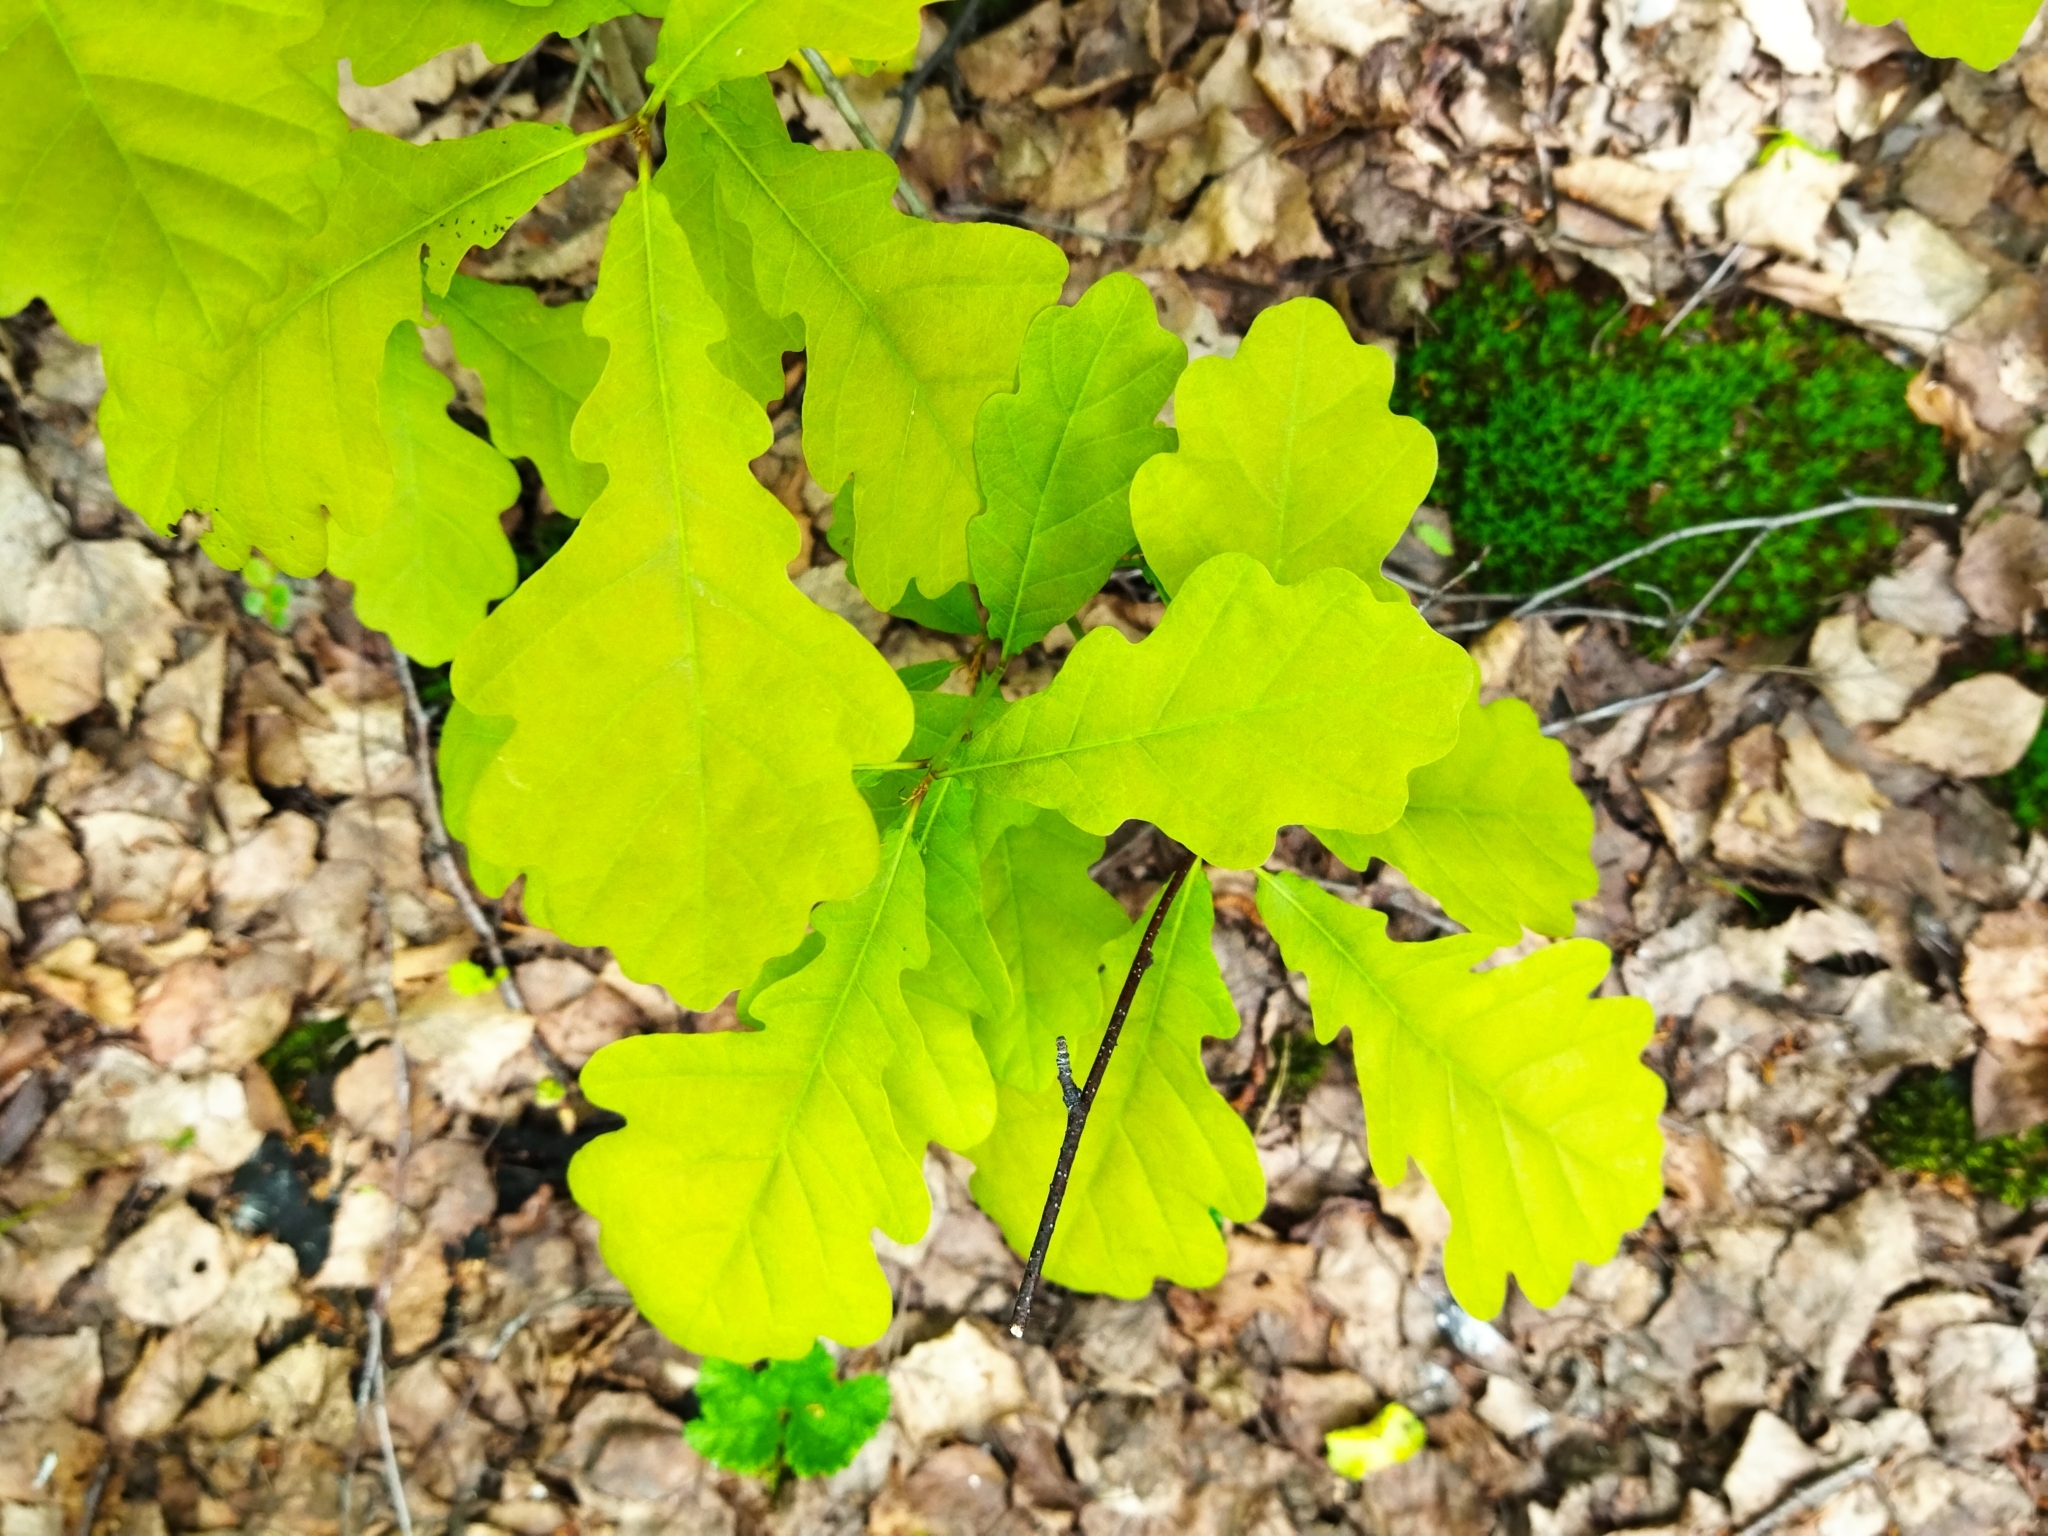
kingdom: Plantae
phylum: Tracheophyta
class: Magnoliopsida
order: Fagales
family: Fagaceae
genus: Quercus
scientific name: Quercus robur
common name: Pedunculate oak
